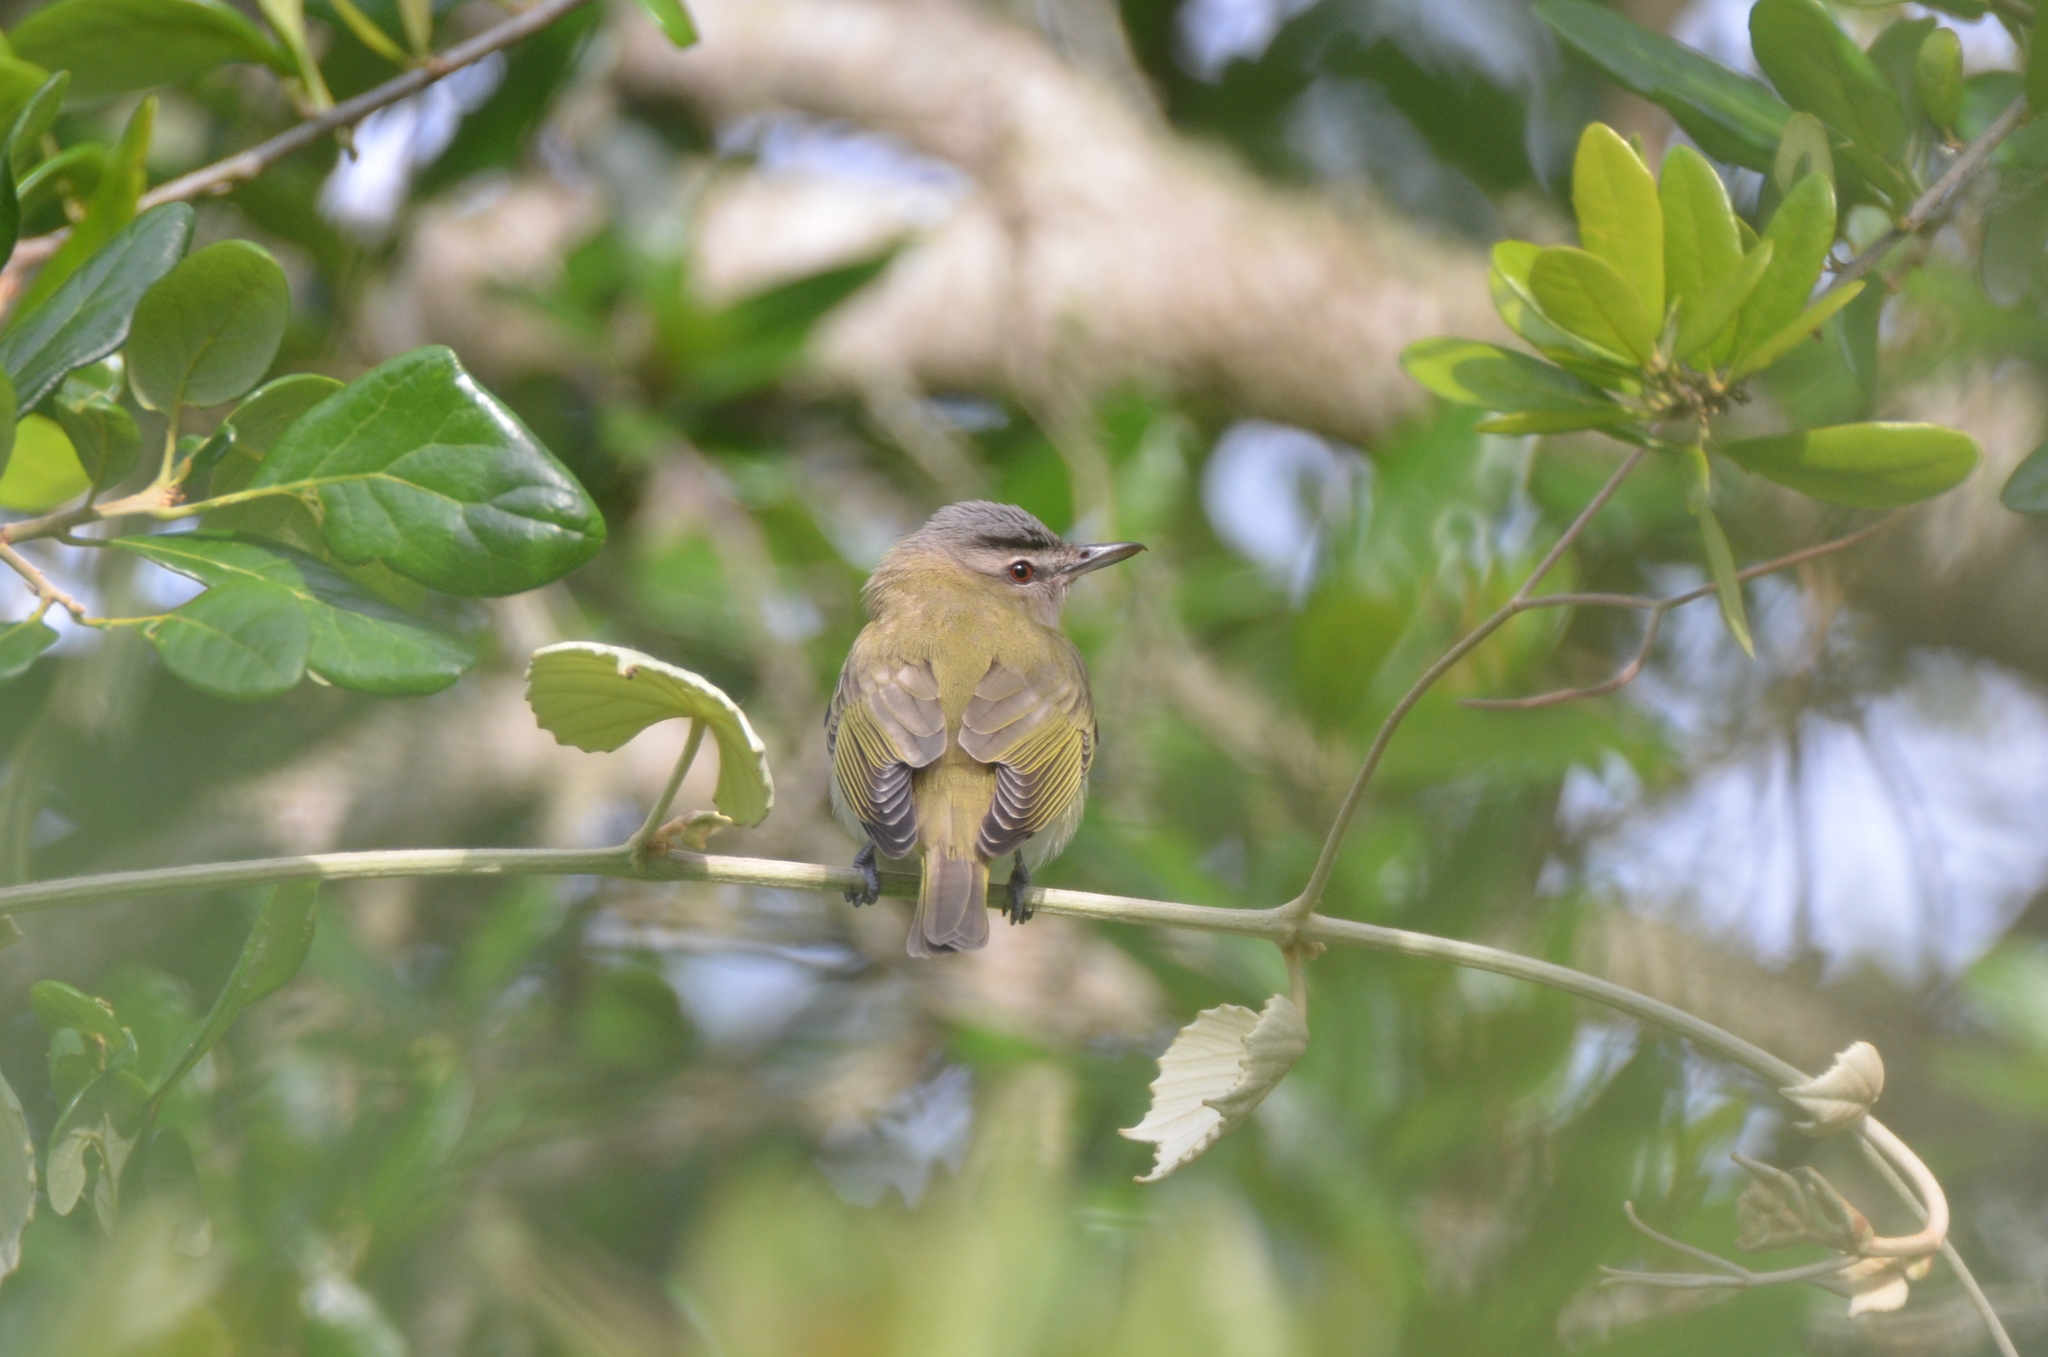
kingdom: Animalia
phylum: Chordata
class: Aves
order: Passeriformes
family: Vireonidae
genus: Vireo
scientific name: Vireo olivaceus
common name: Red-eyed vireo
